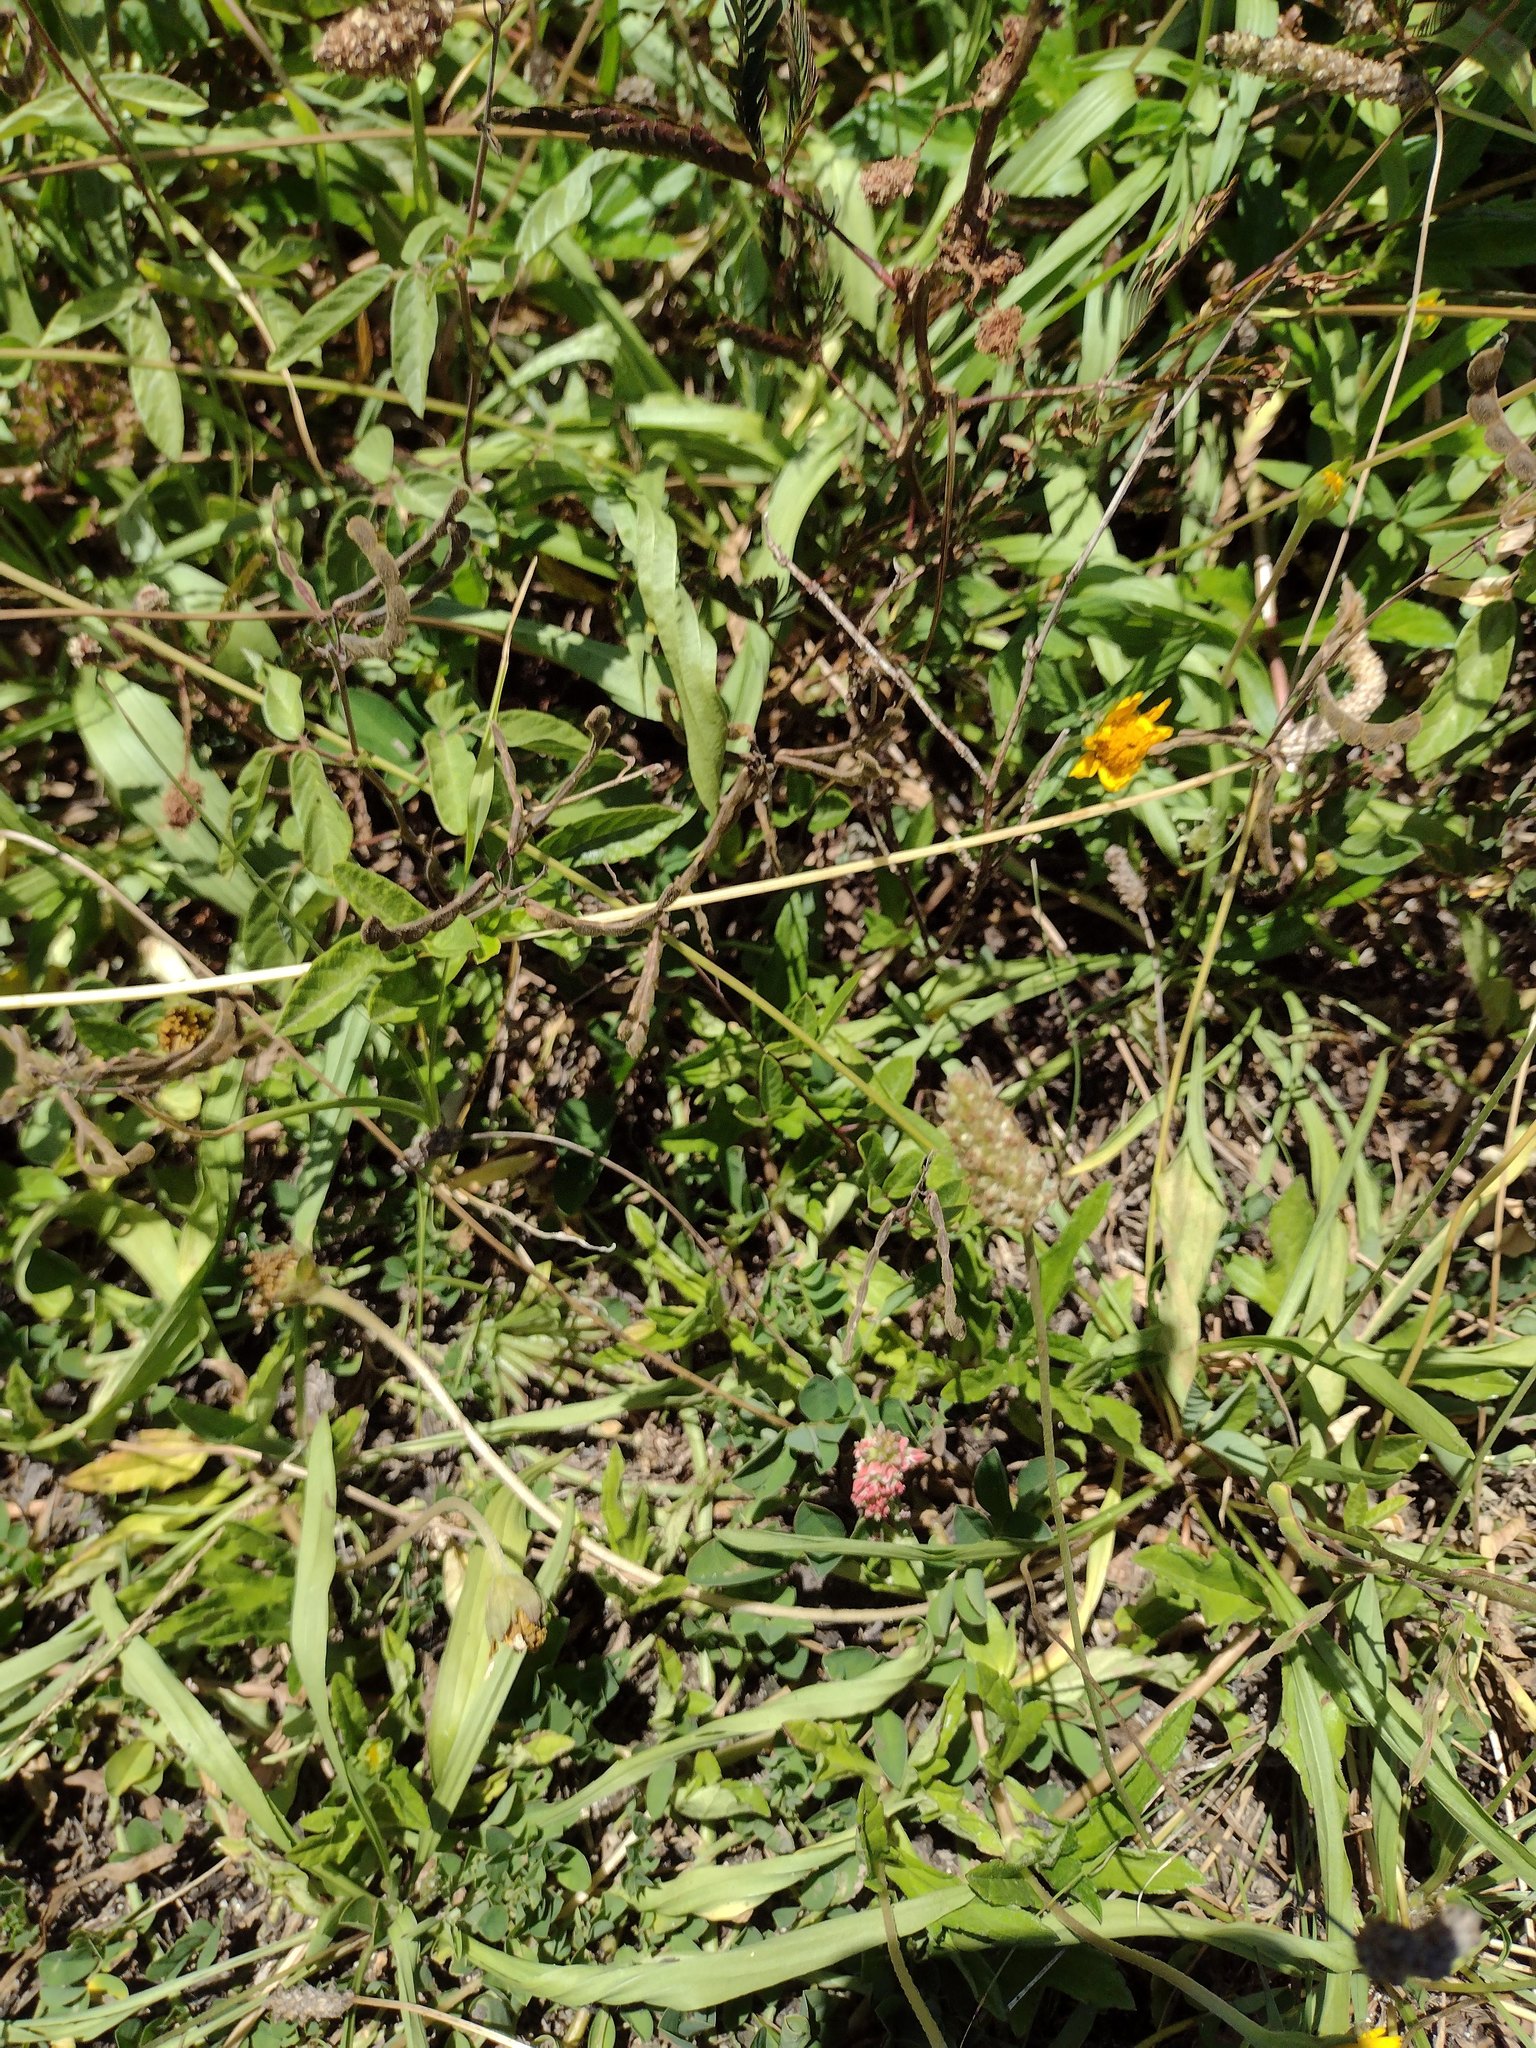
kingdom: Plantae
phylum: Tracheophyta
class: Magnoliopsida
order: Lamiales
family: Plantaginaceae
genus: Plantago
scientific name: Plantago lanceolata
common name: Ribwort plantain
